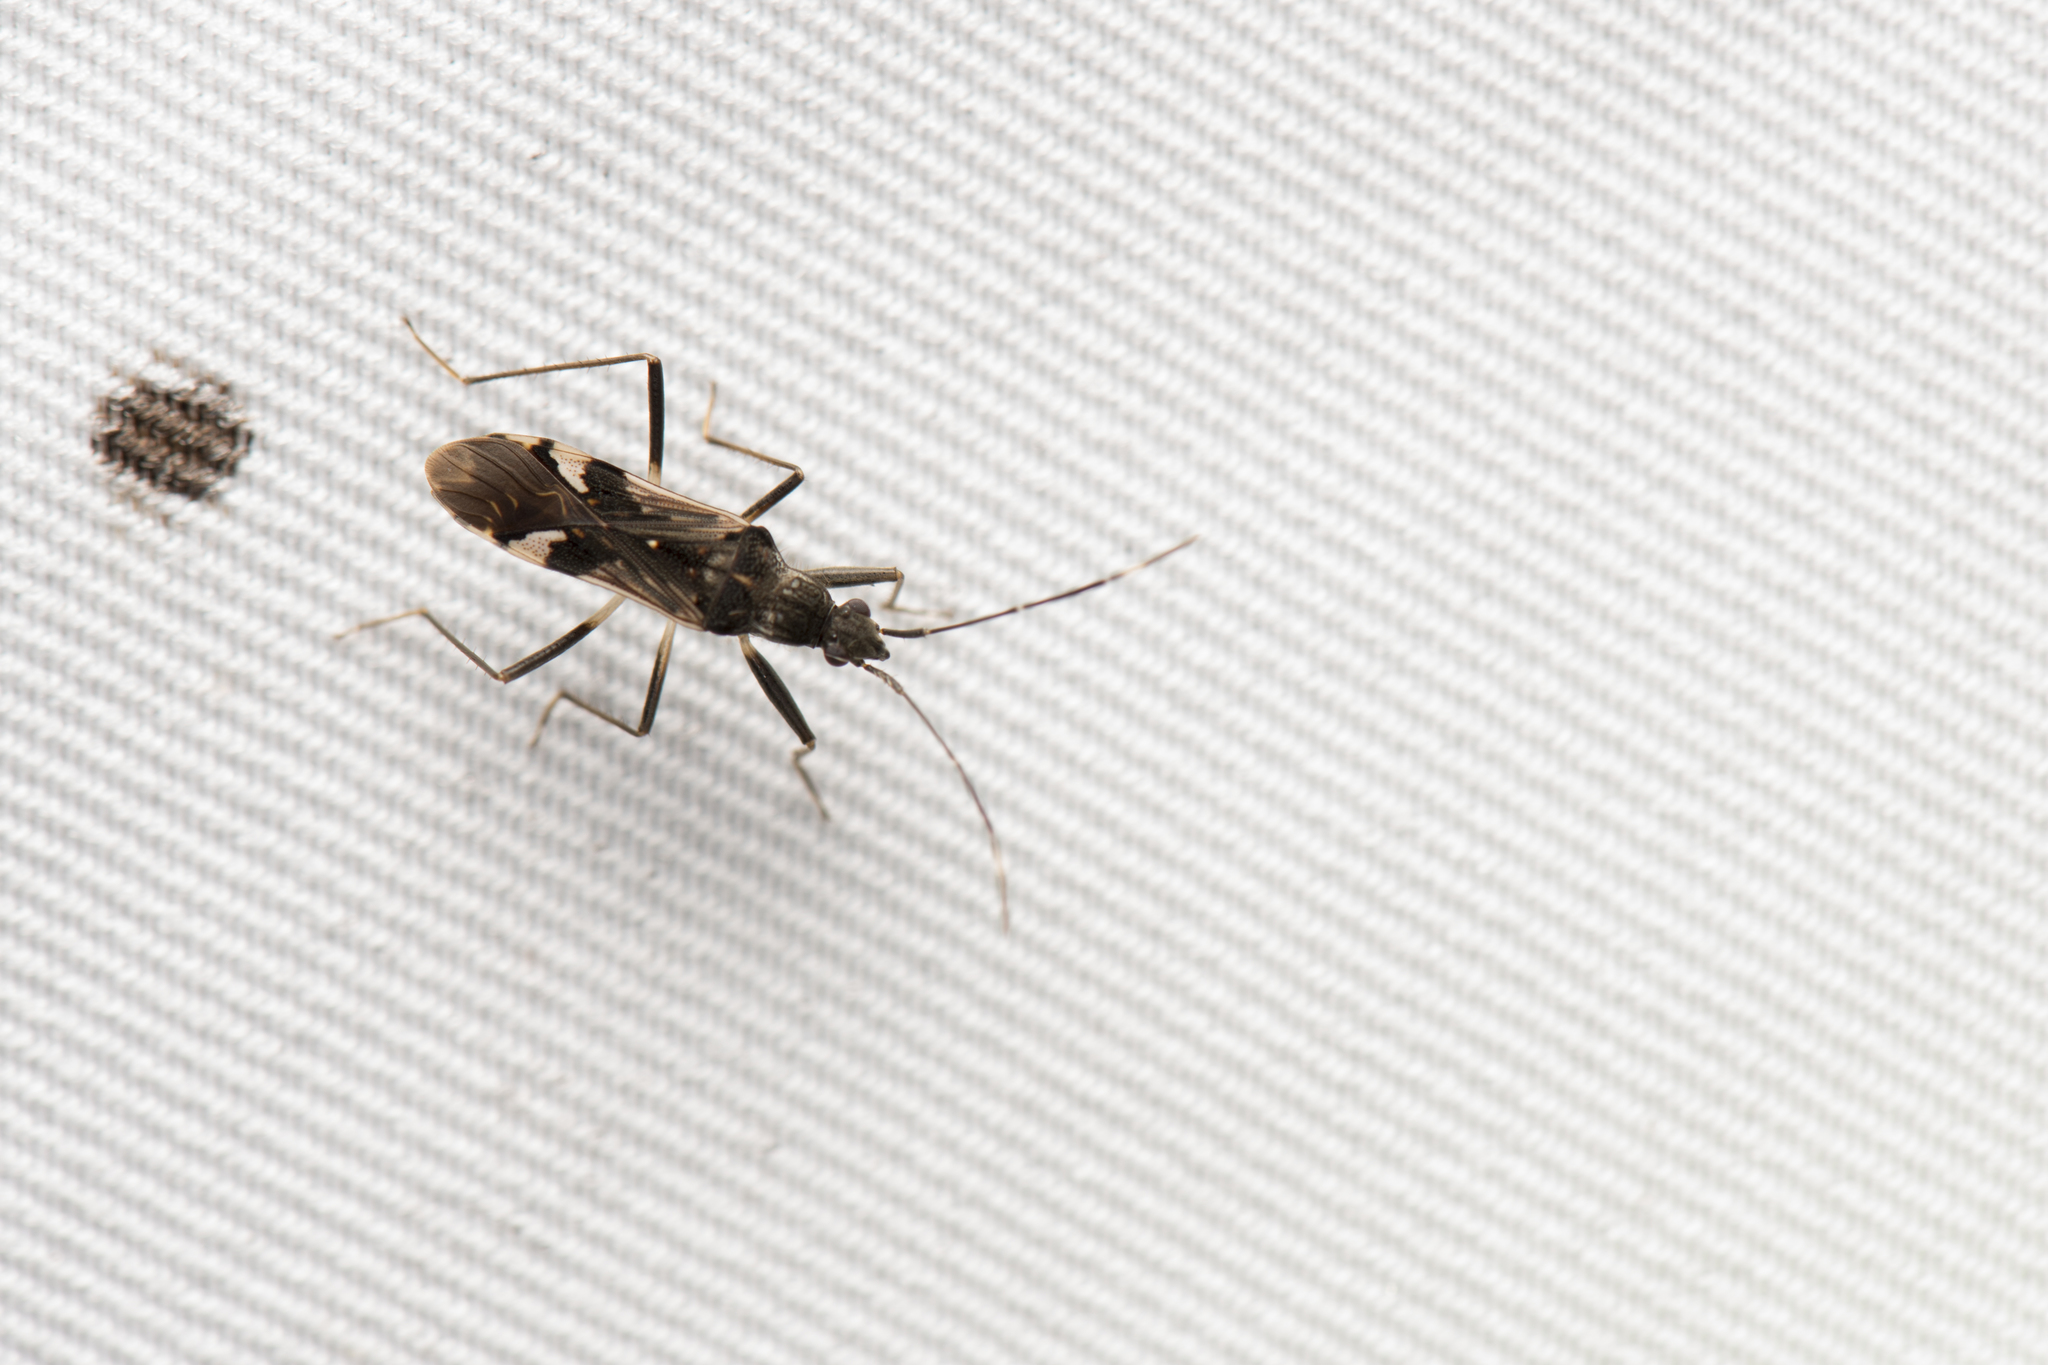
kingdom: Animalia
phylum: Arthropoda
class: Insecta
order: Hemiptera
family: Rhyparochromidae
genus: Metochus
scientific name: Metochus hainanensis
